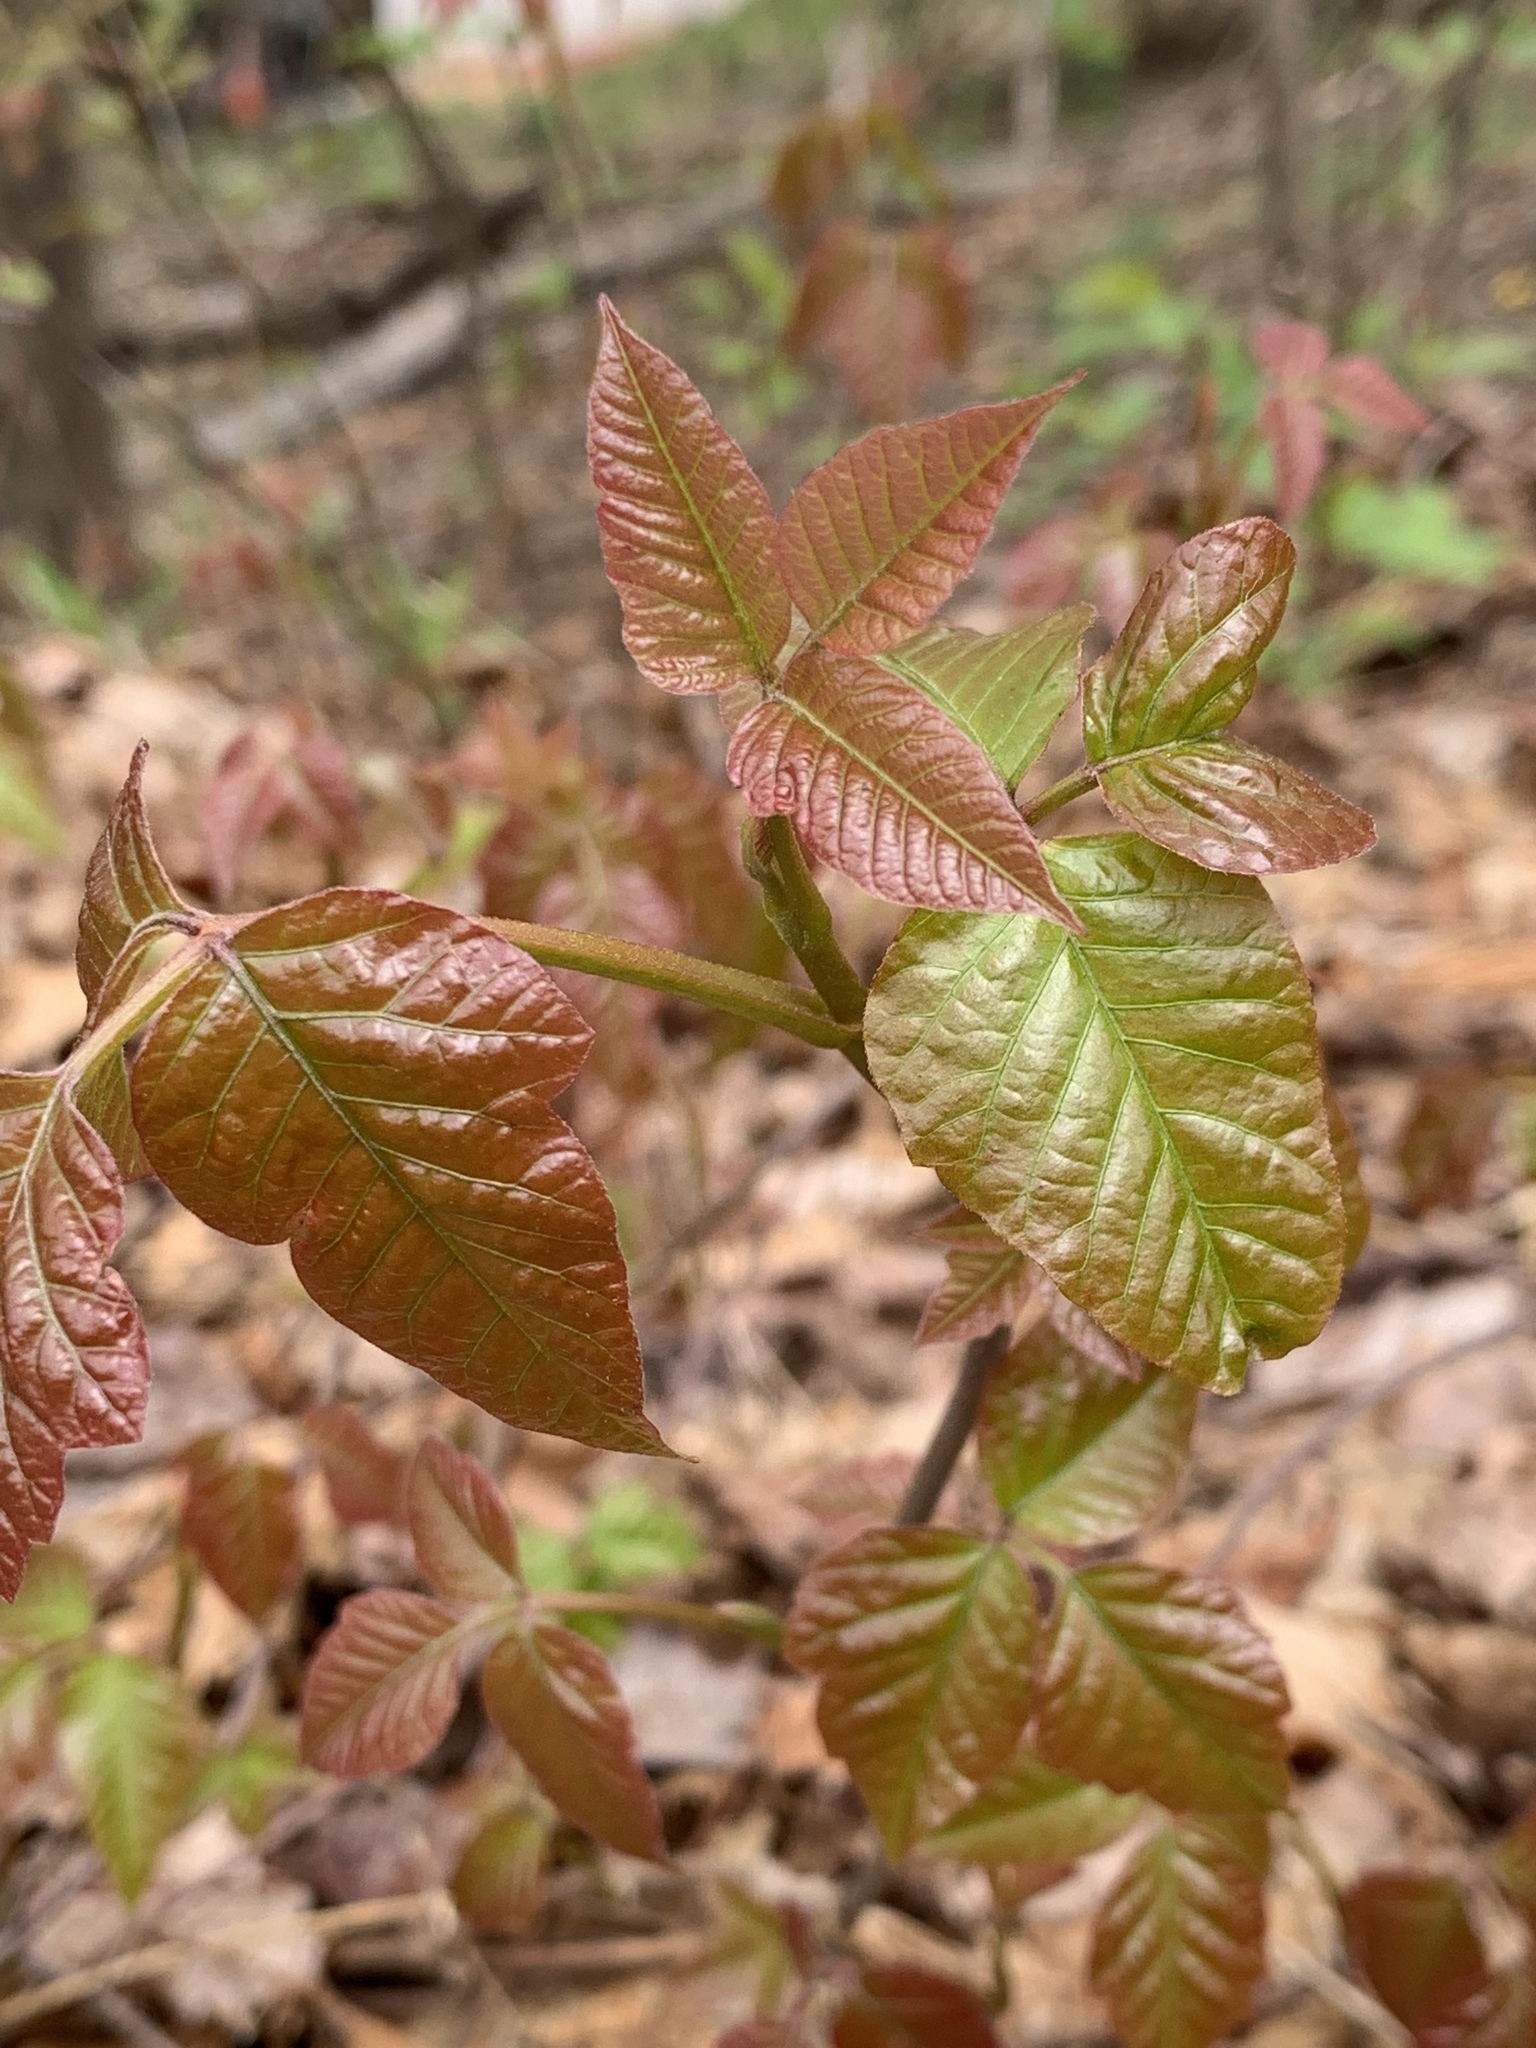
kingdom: Plantae
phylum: Tracheophyta
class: Magnoliopsida
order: Sapindales
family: Anacardiaceae
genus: Toxicodendron
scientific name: Toxicodendron radicans
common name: Poison ivy
